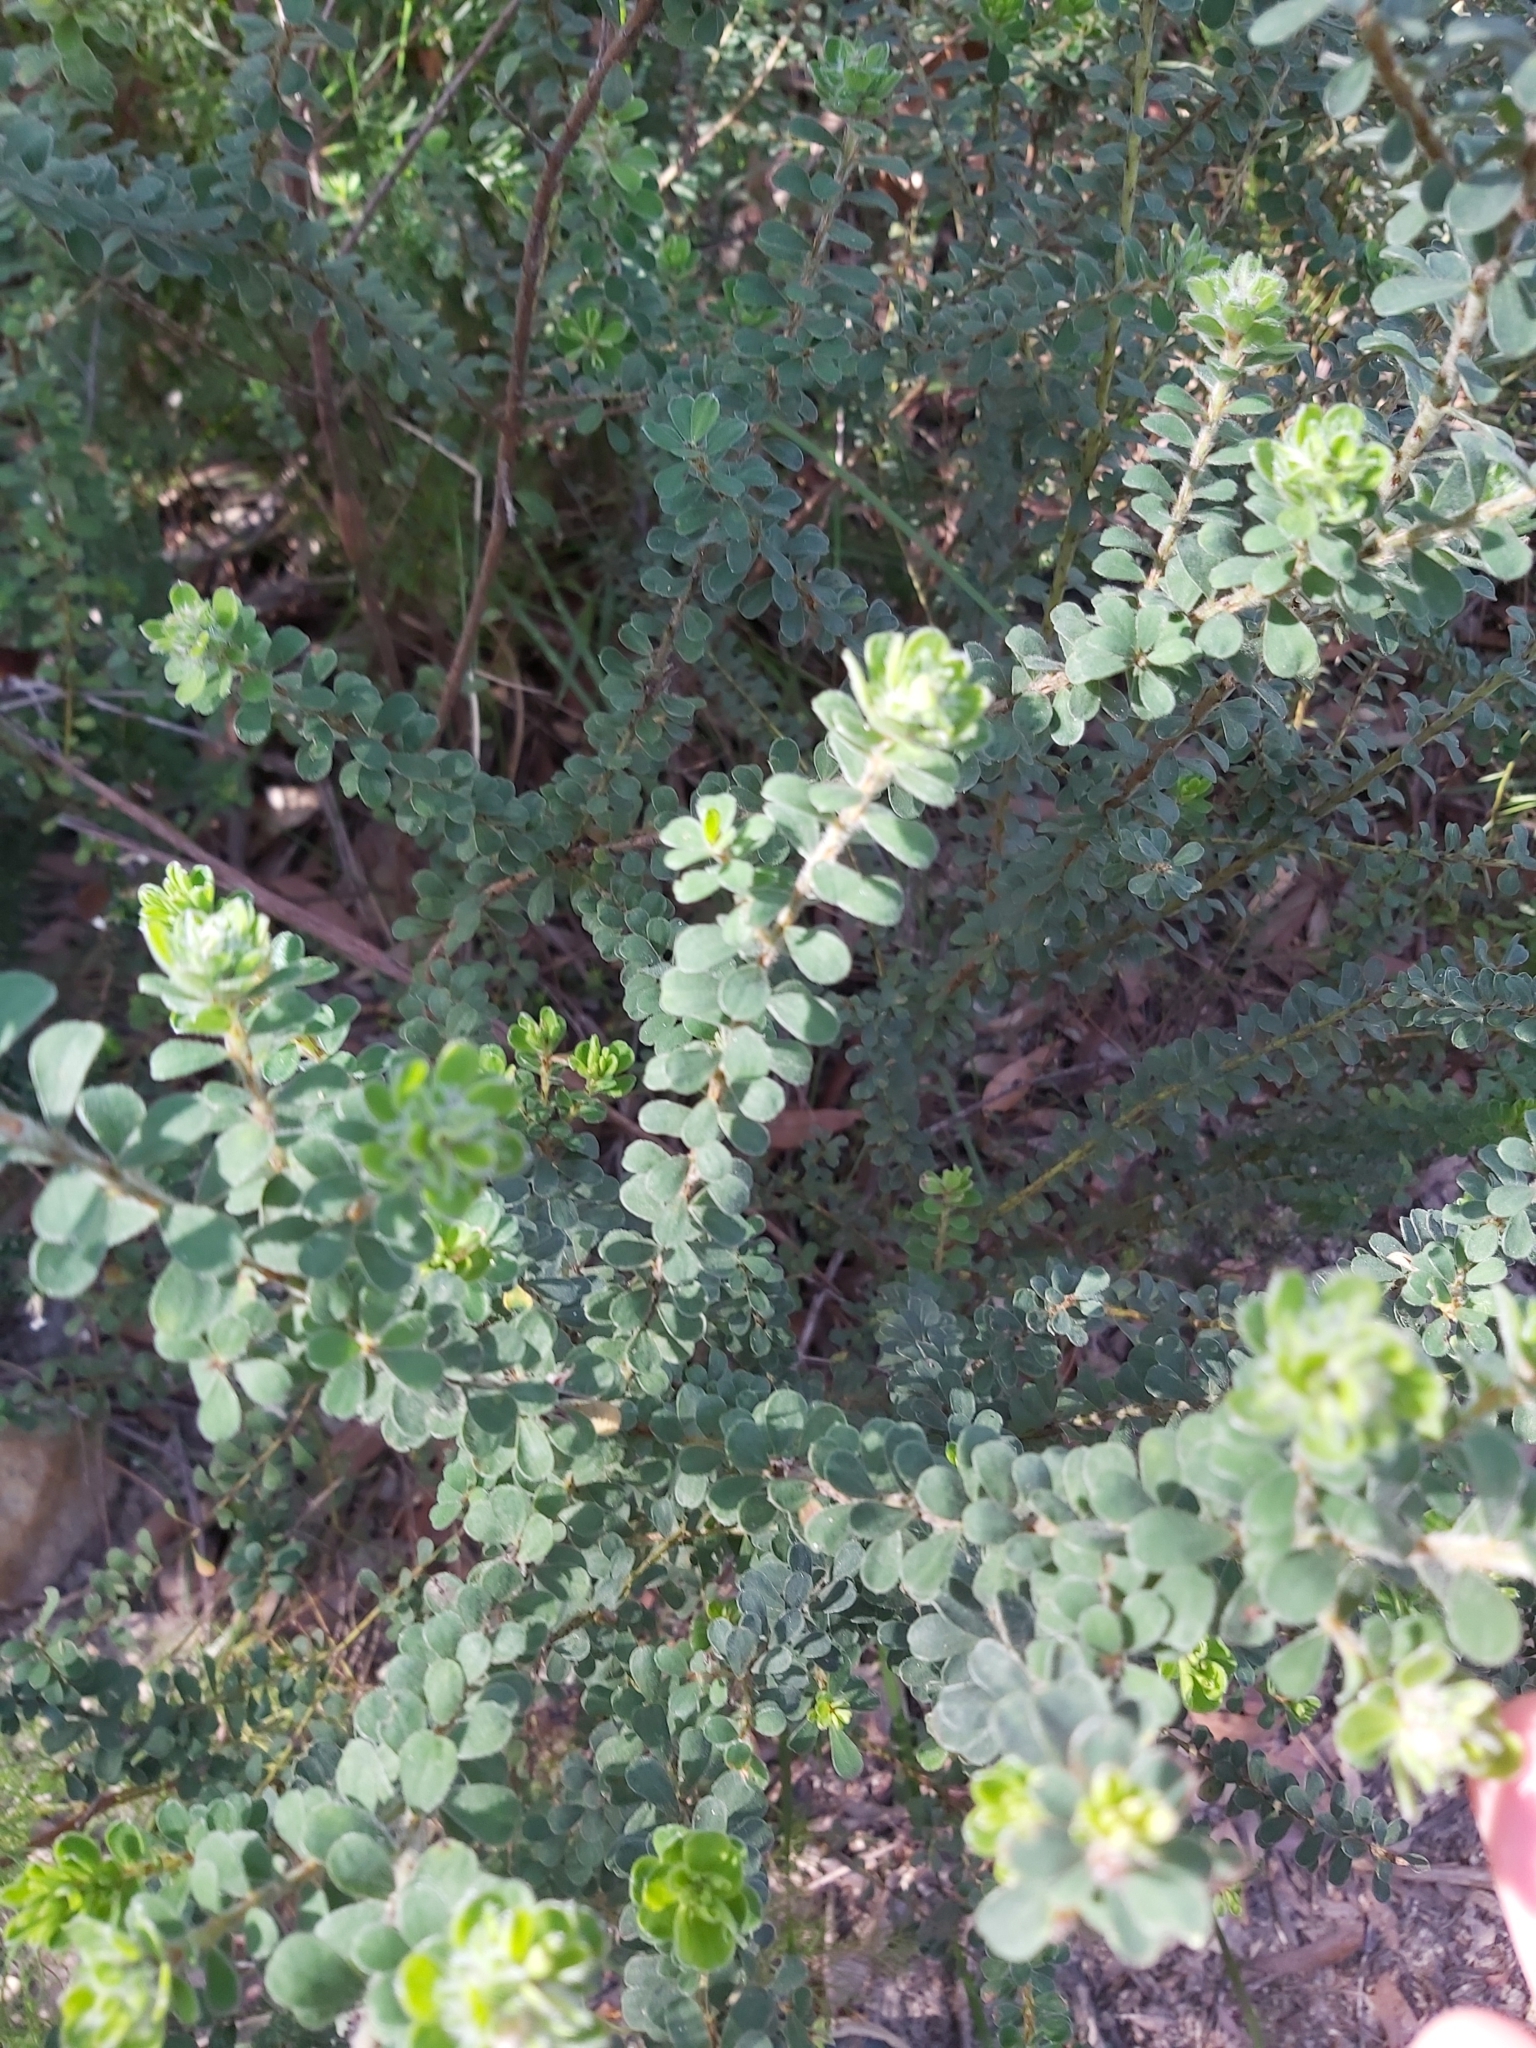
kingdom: Plantae
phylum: Tracheophyta
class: Magnoliopsida
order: Fabales
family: Fabaceae
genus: Pultenaea
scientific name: Pultenaea villosa
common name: Bronze bush-pea
